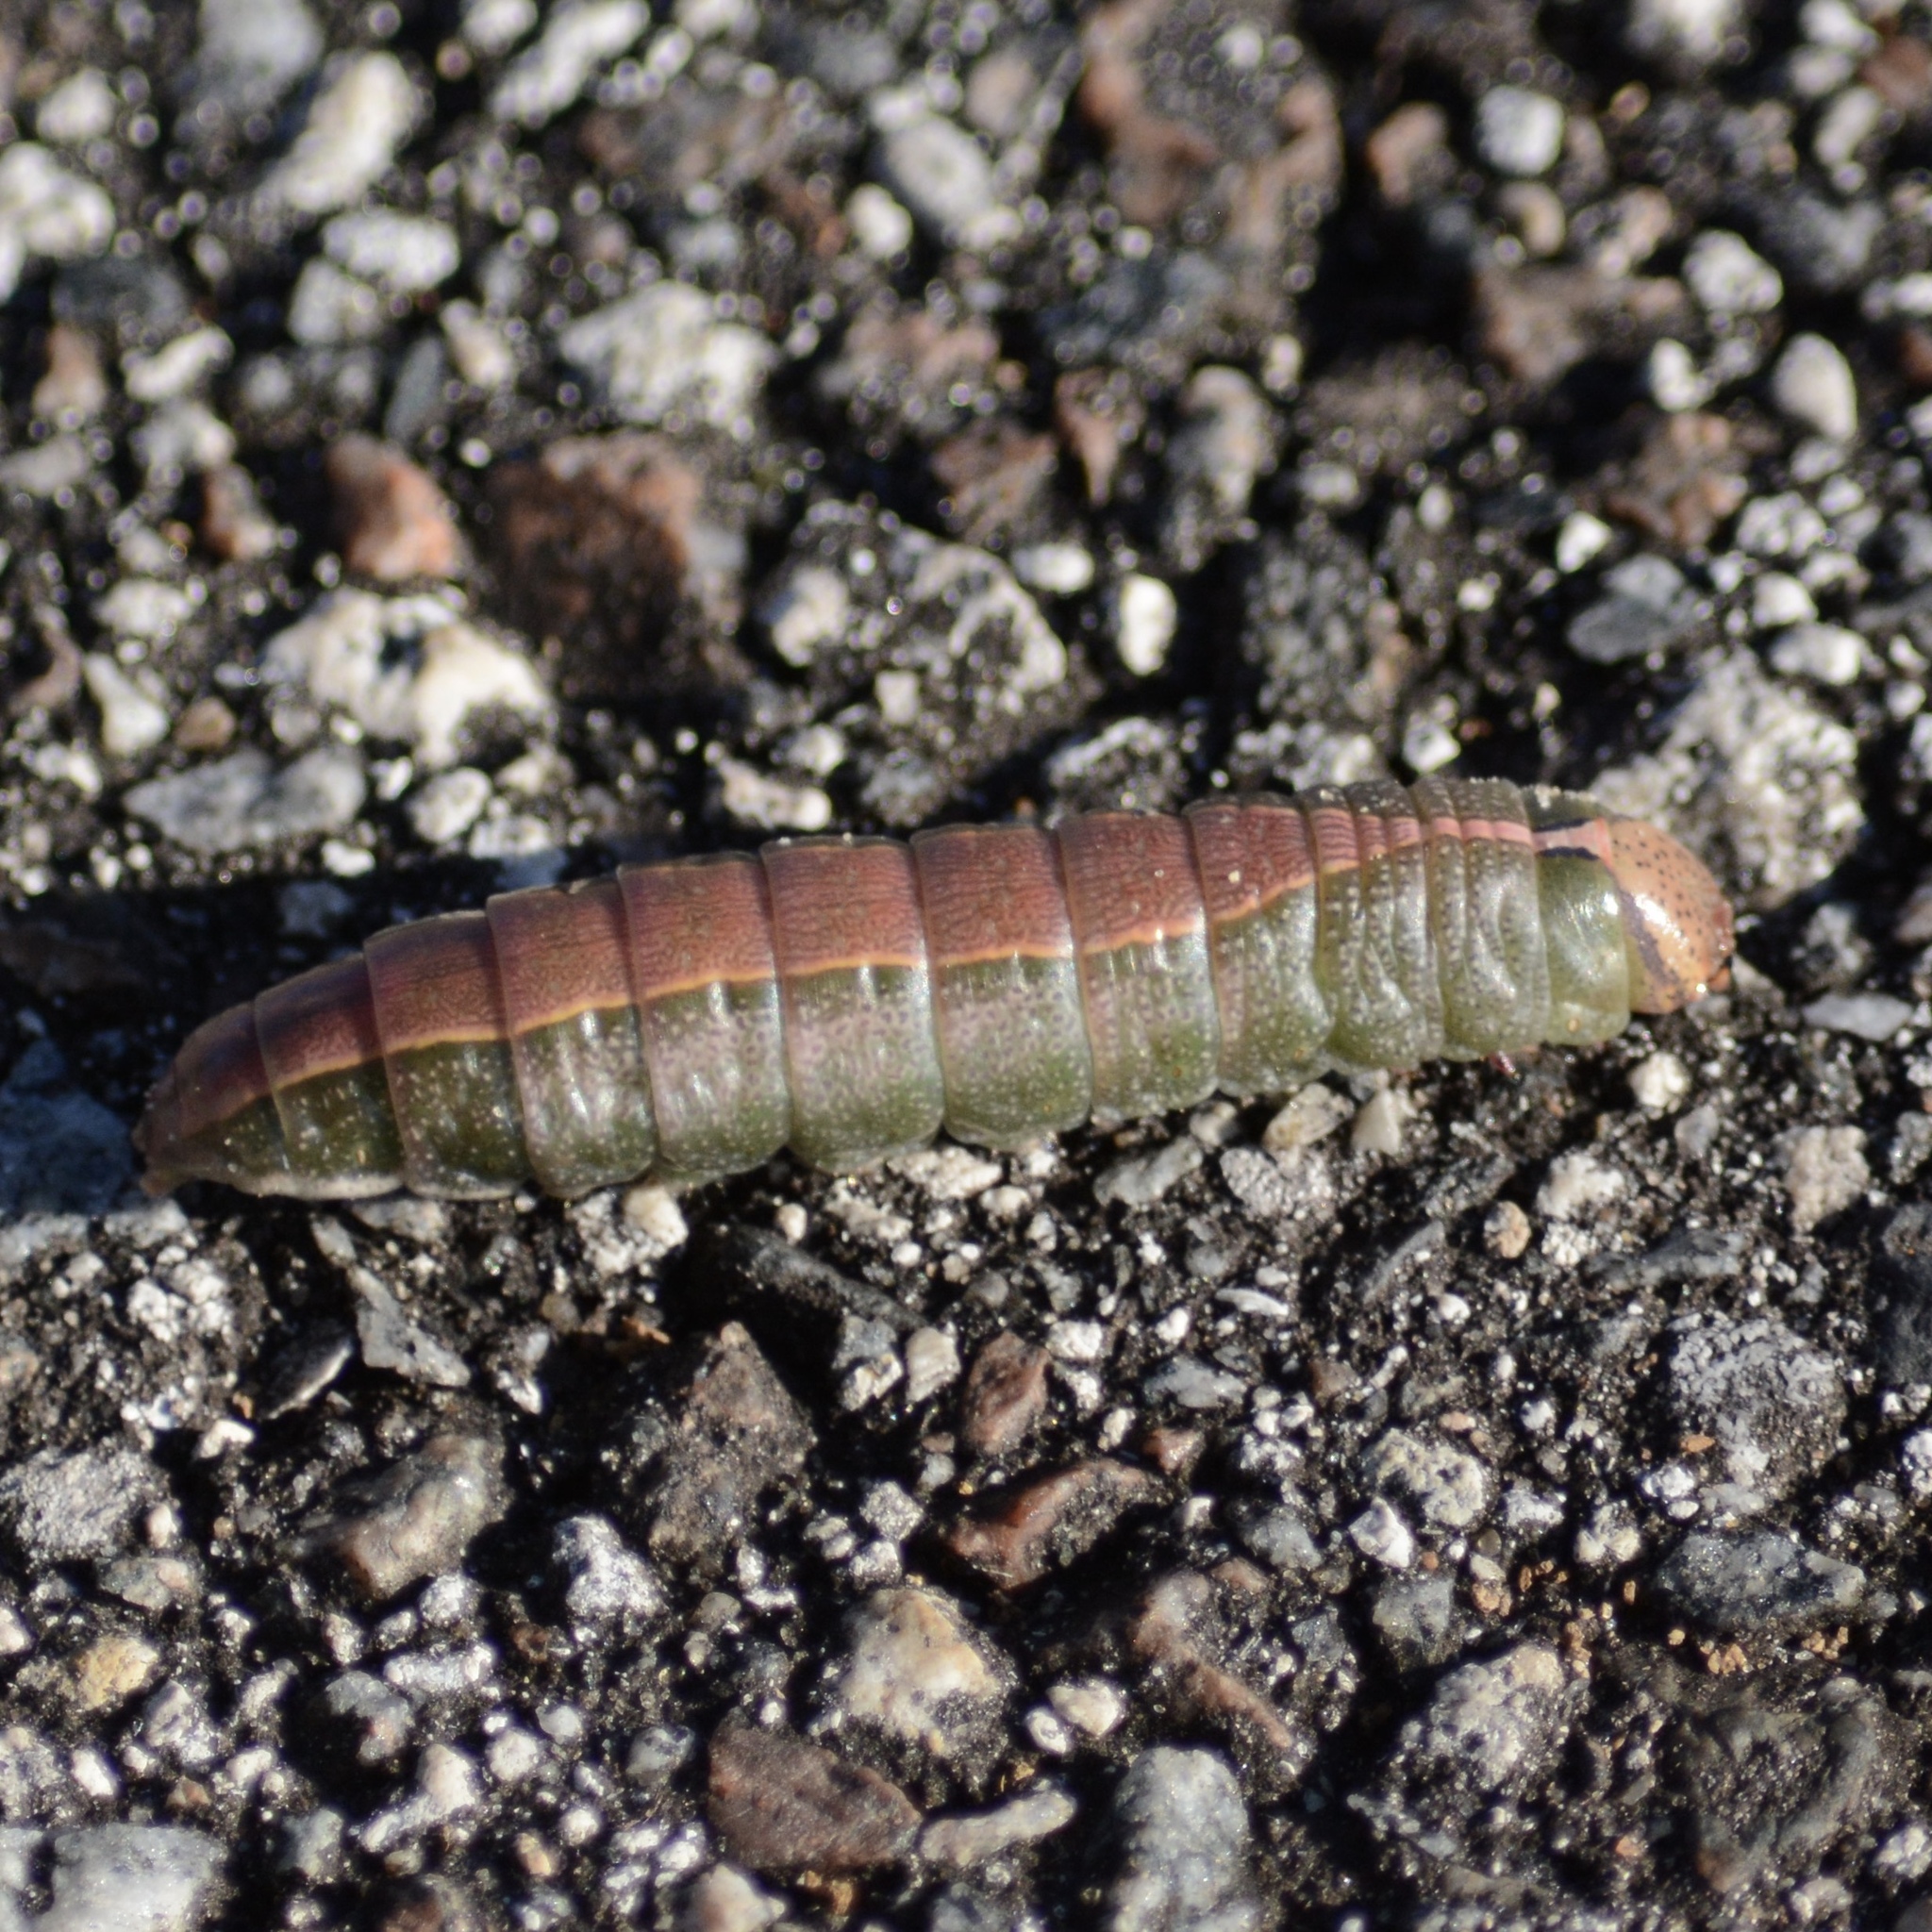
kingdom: Animalia
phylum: Arthropoda
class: Insecta
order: Lepidoptera
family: Notodontidae
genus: Heterocampa
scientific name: Heterocampa astarte
